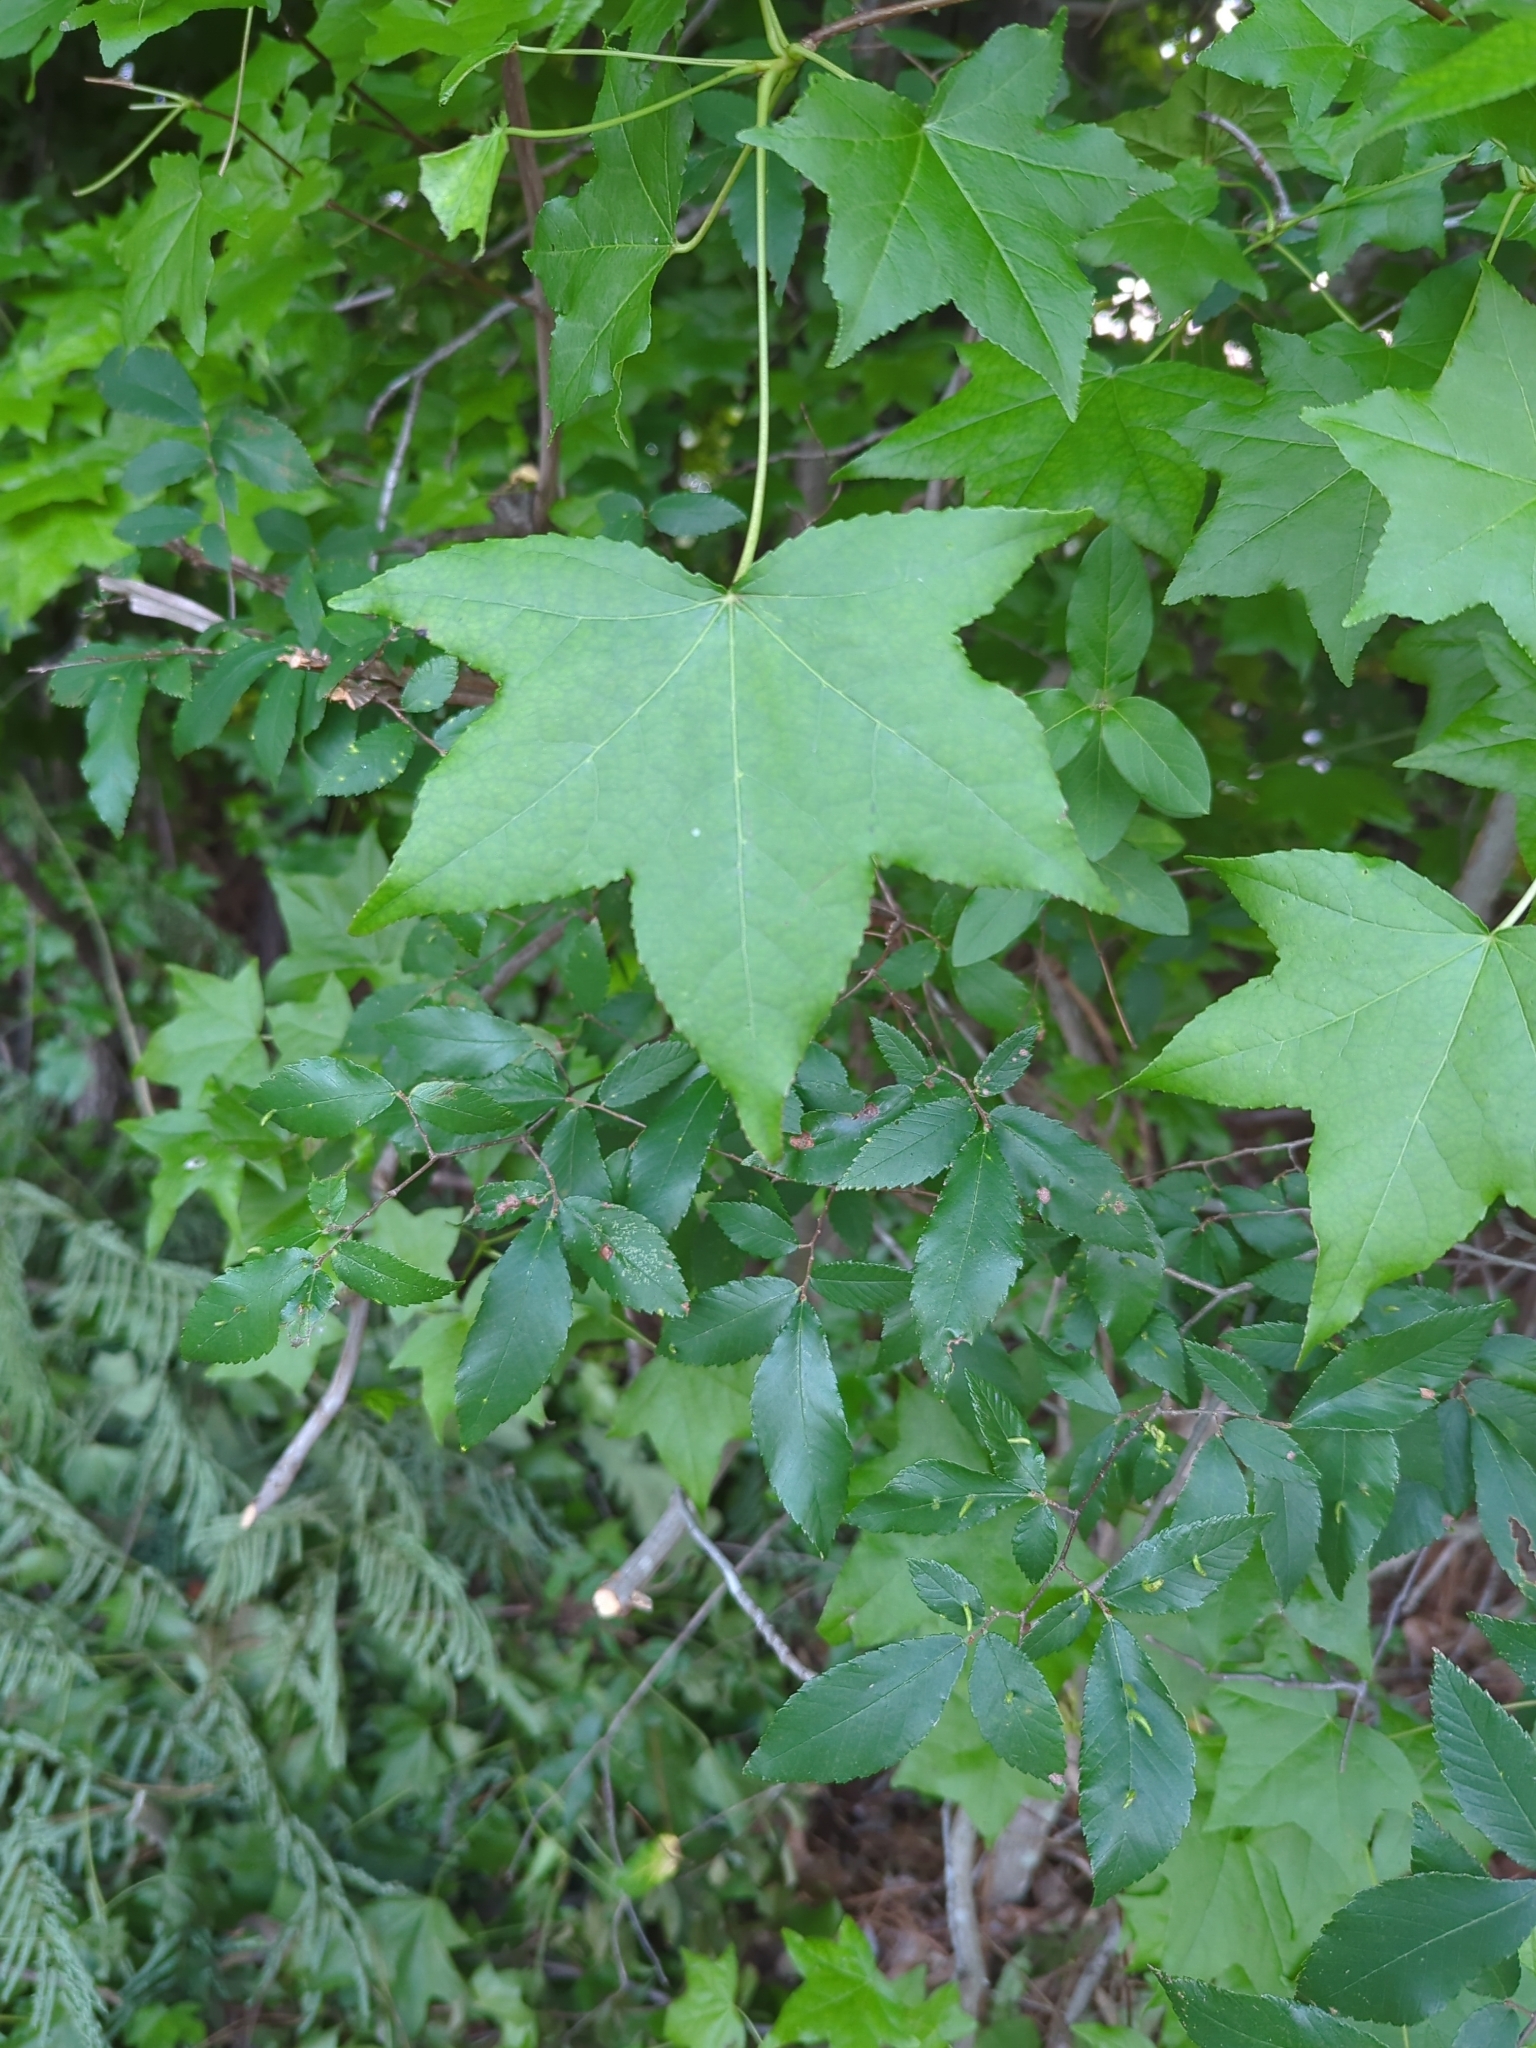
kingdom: Plantae
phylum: Tracheophyta
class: Magnoliopsida
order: Saxifragales
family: Altingiaceae
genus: Liquidambar
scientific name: Liquidambar styraciflua
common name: Sweet gum
